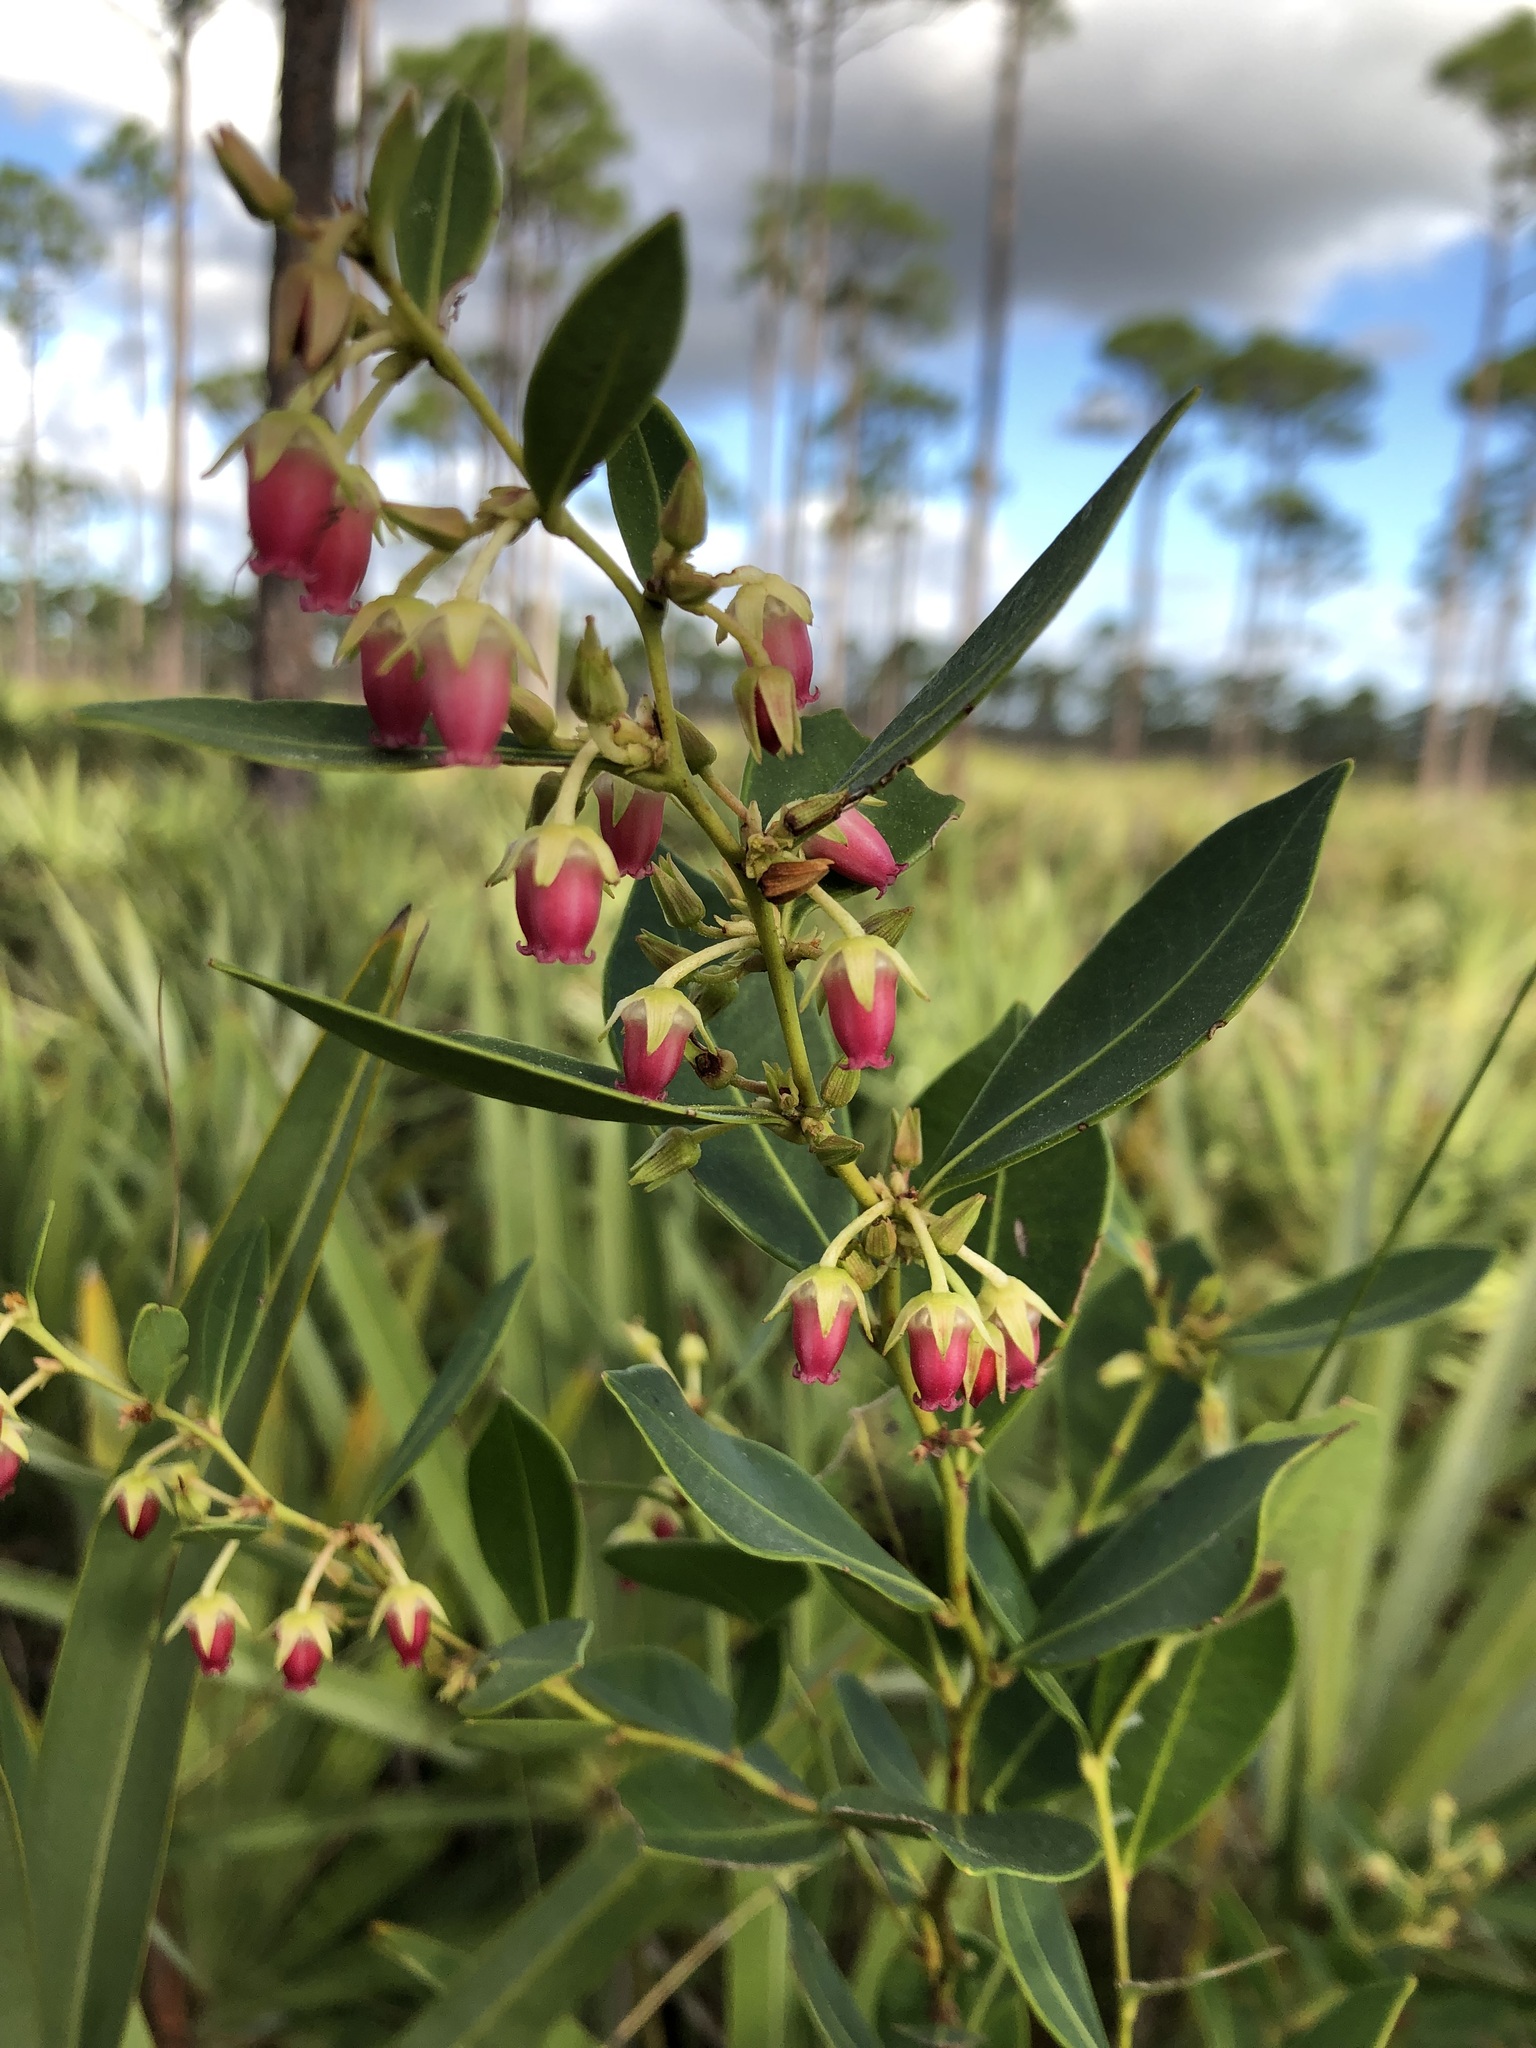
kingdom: Plantae
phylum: Tracheophyta
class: Magnoliopsida
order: Ericales
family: Ericaceae
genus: Lyonia
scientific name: Lyonia lucida
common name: Fetterbush
